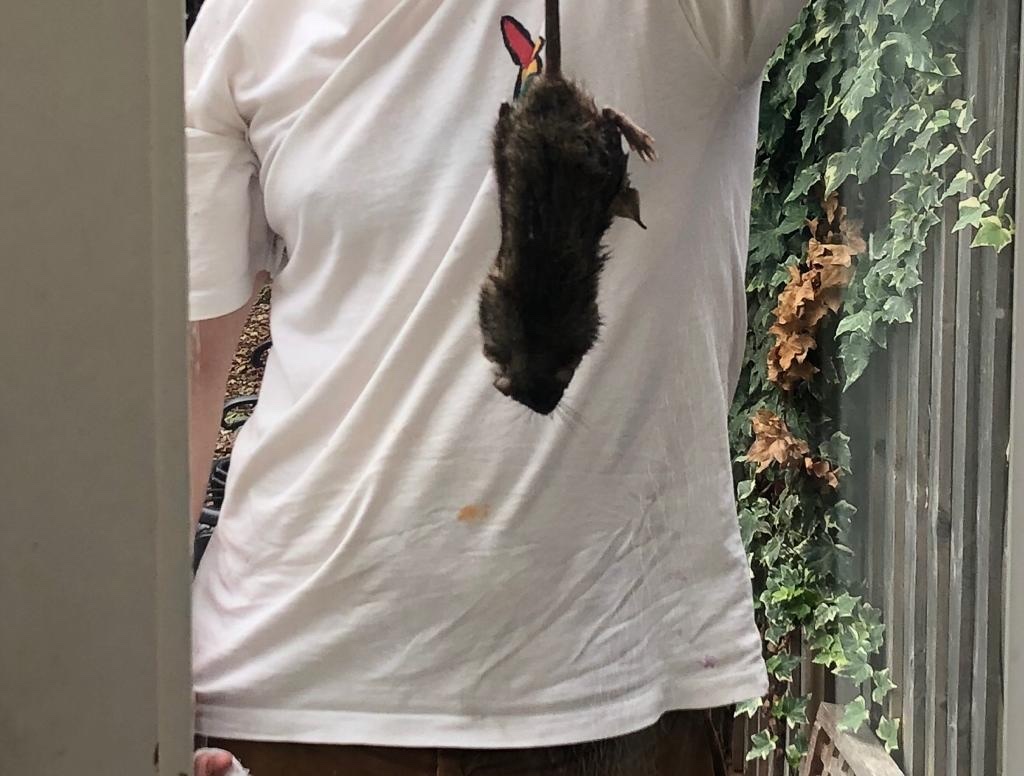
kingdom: Animalia
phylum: Chordata
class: Mammalia
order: Rodentia
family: Muridae
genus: Rattus
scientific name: Rattus norvegicus
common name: Brown rat
